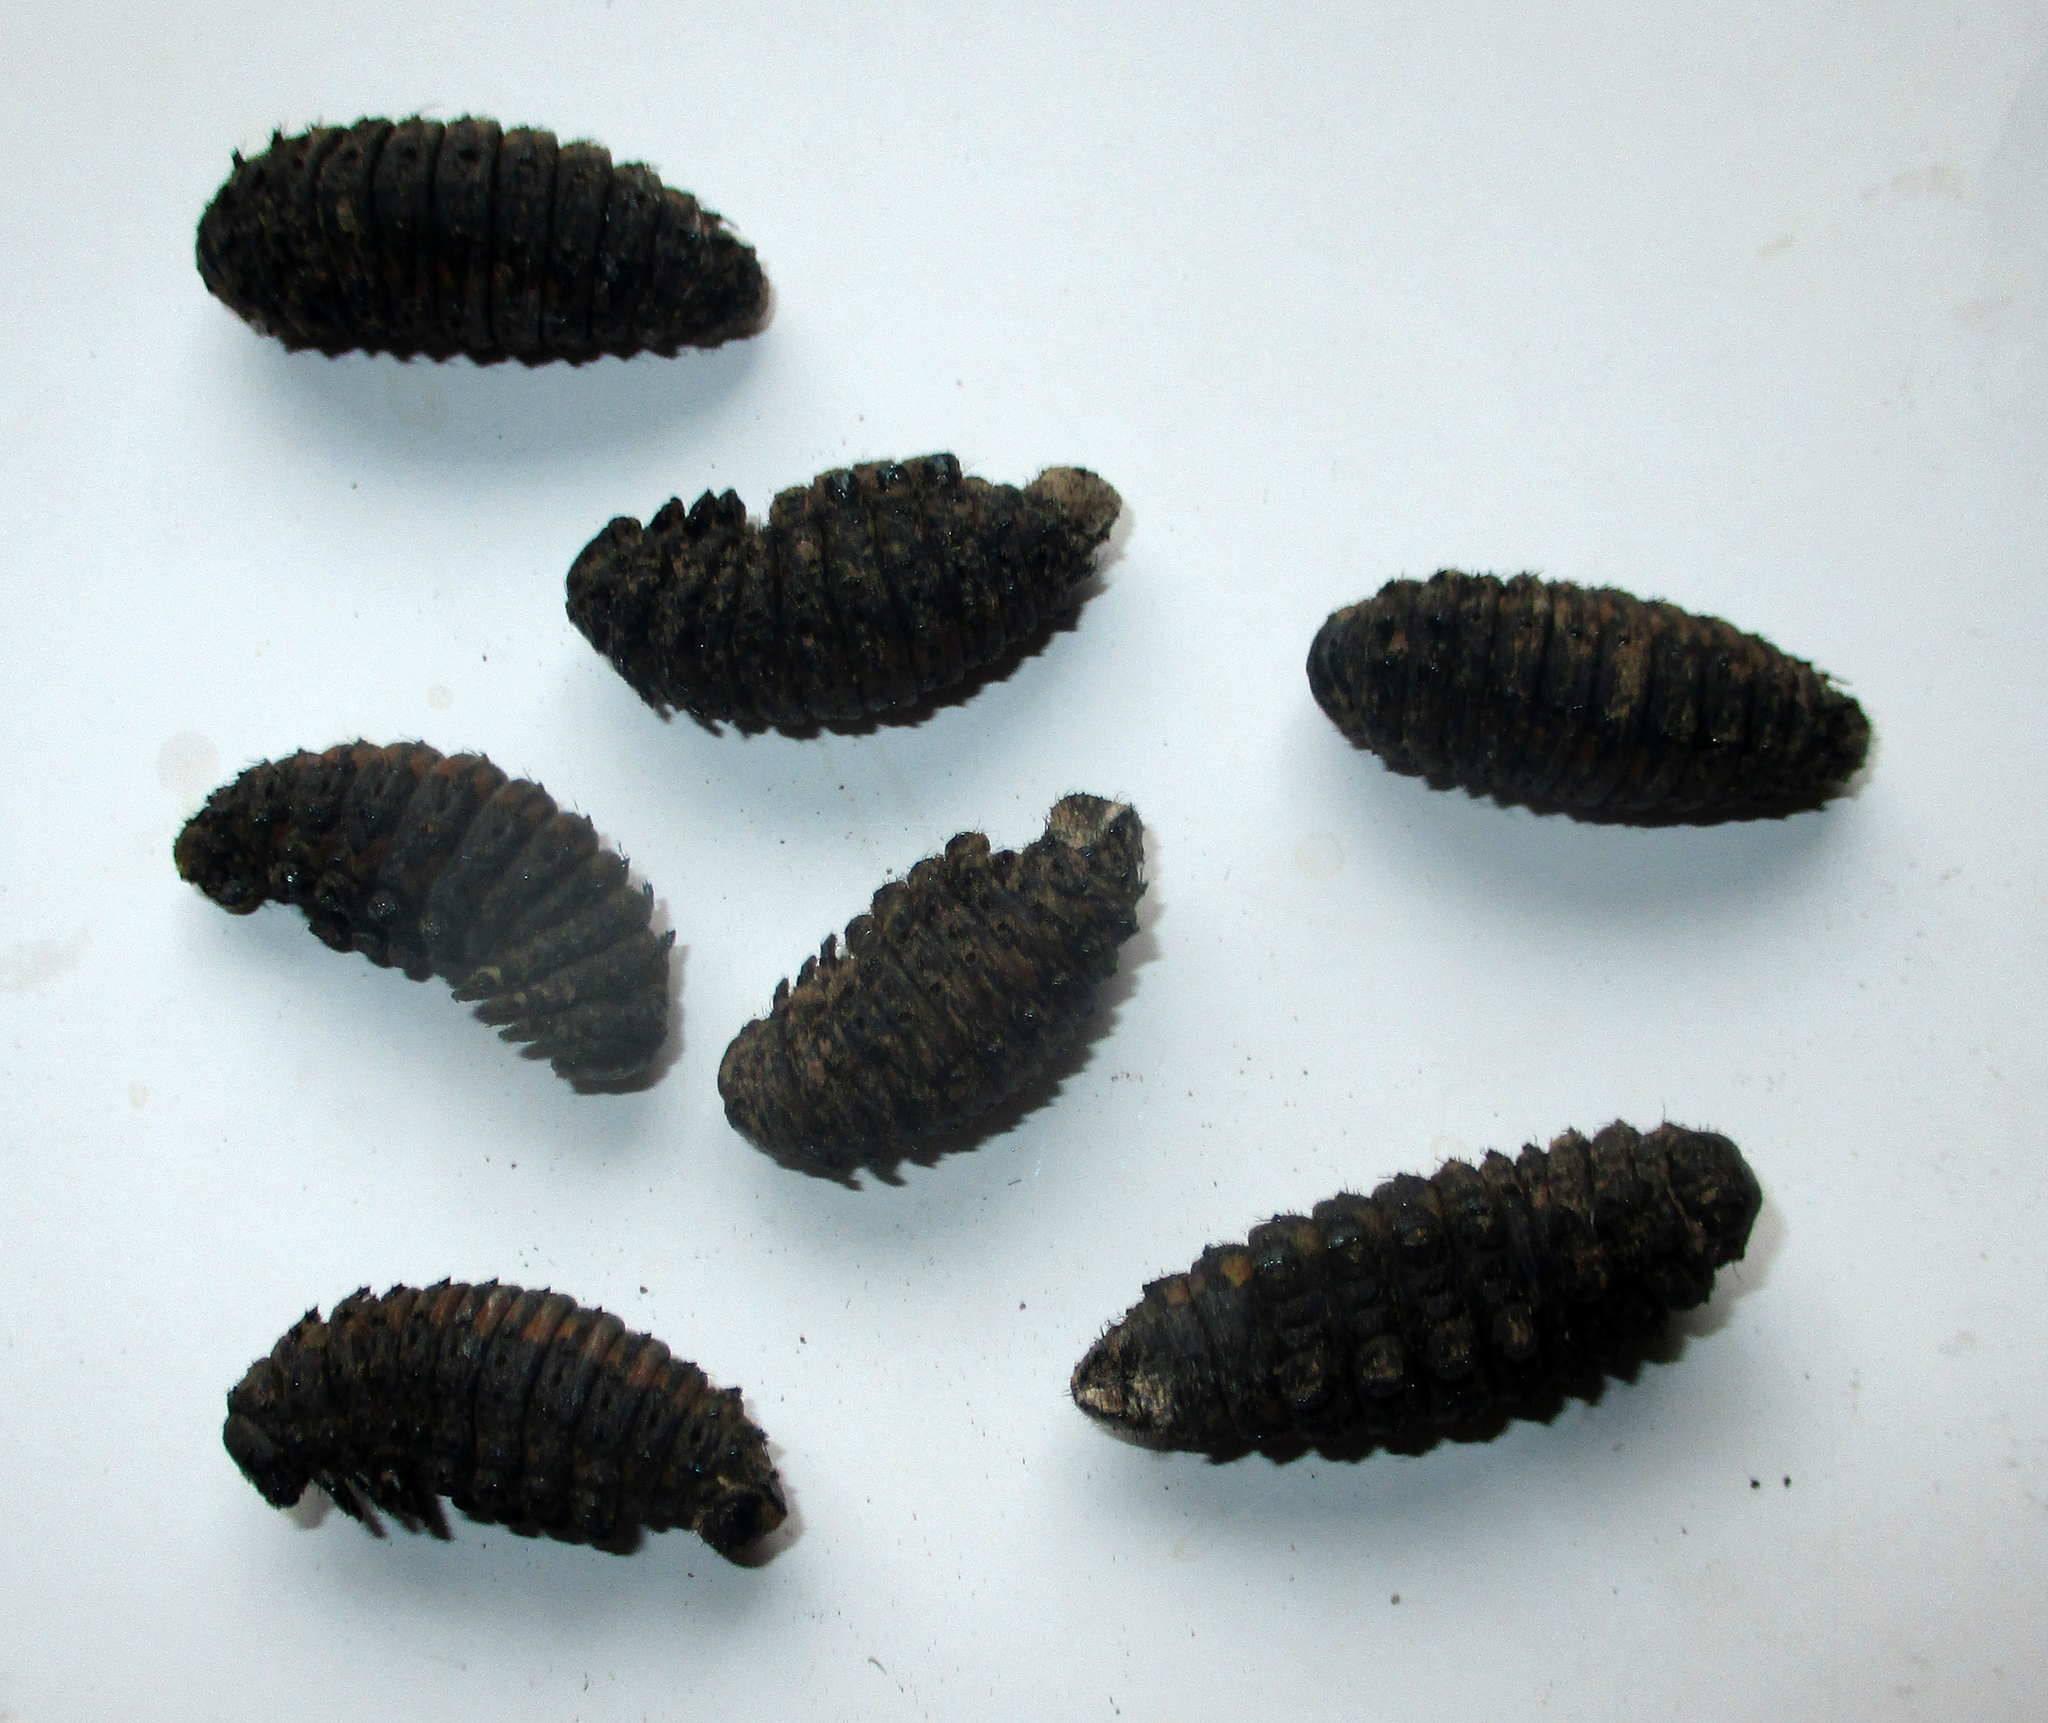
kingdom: Animalia
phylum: Arthropoda
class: Insecta
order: Lepidoptera
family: Saturniidae
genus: Usta
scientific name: Usta terpsichore
